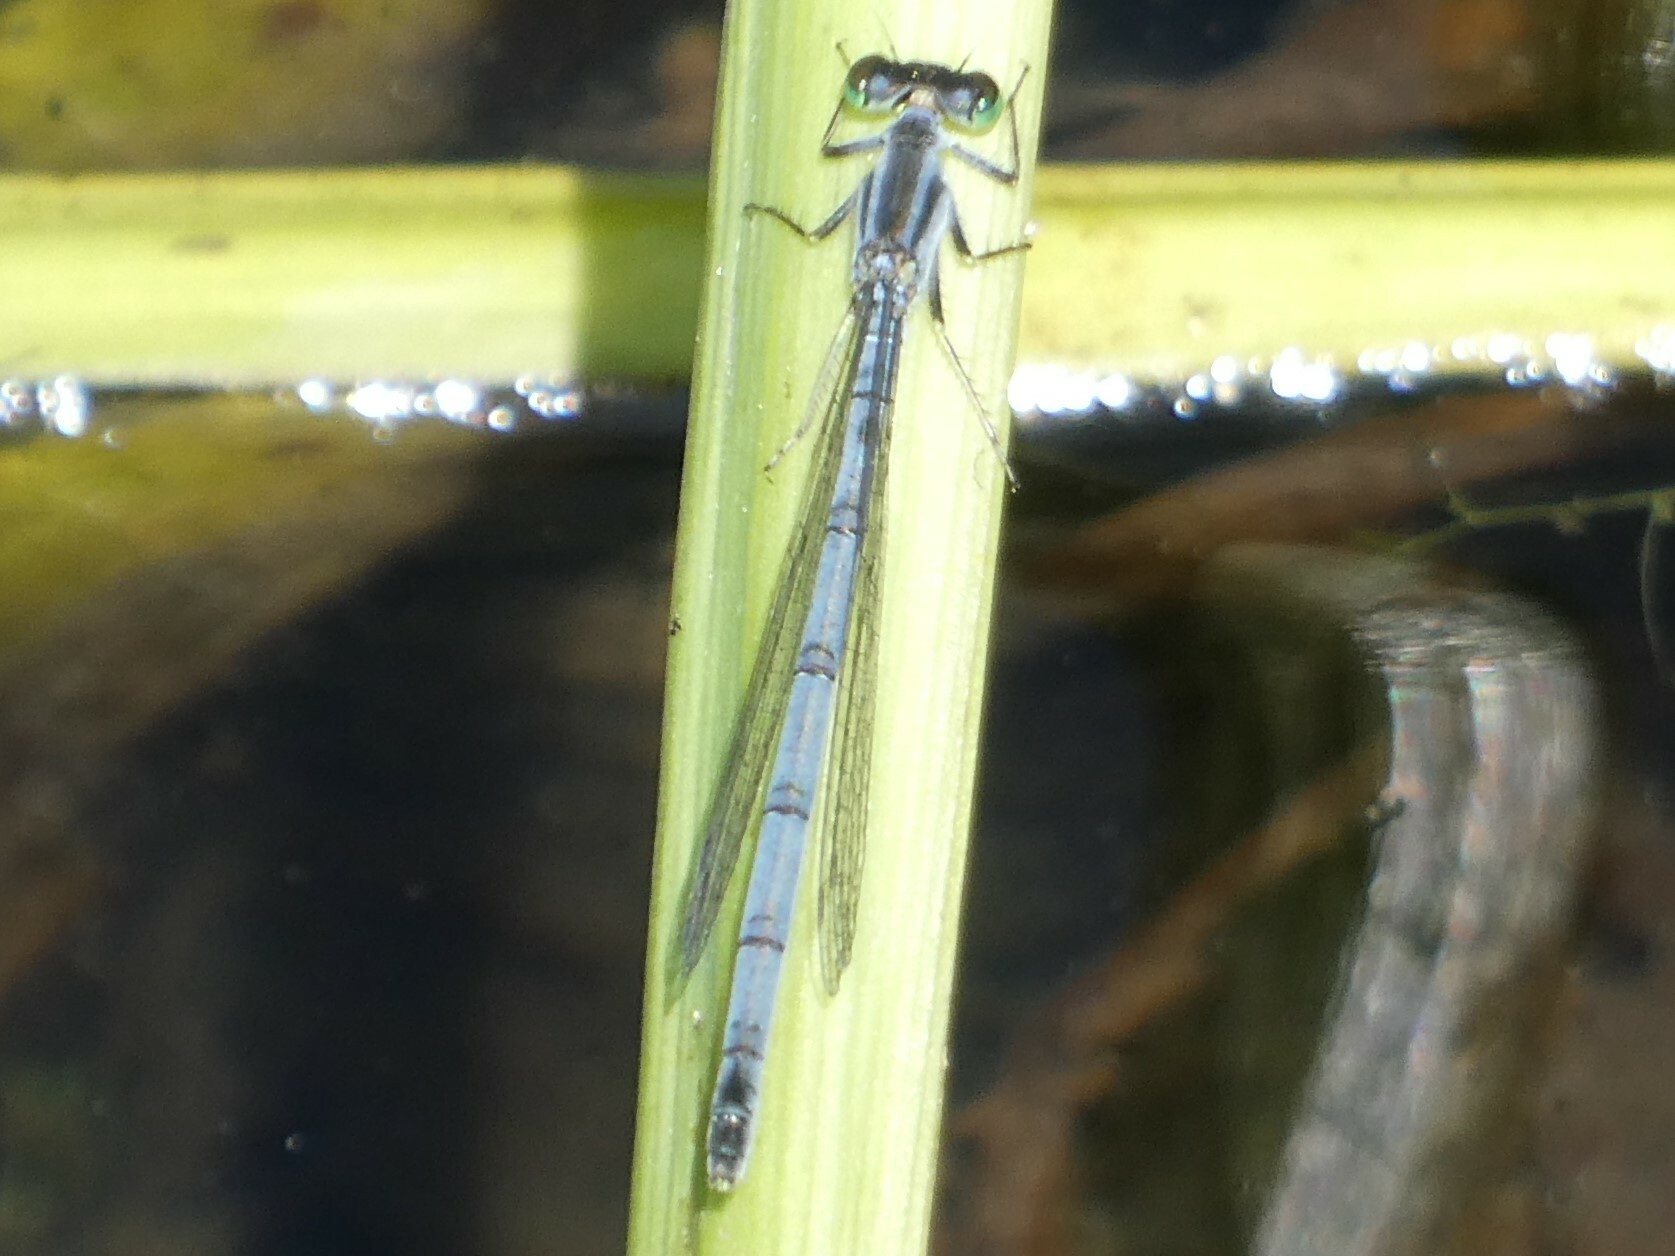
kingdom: Animalia
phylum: Arthropoda
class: Insecta
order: Odonata
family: Coenagrionidae
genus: Ischnura
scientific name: Ischnura verticalis
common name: Eastern forktail
